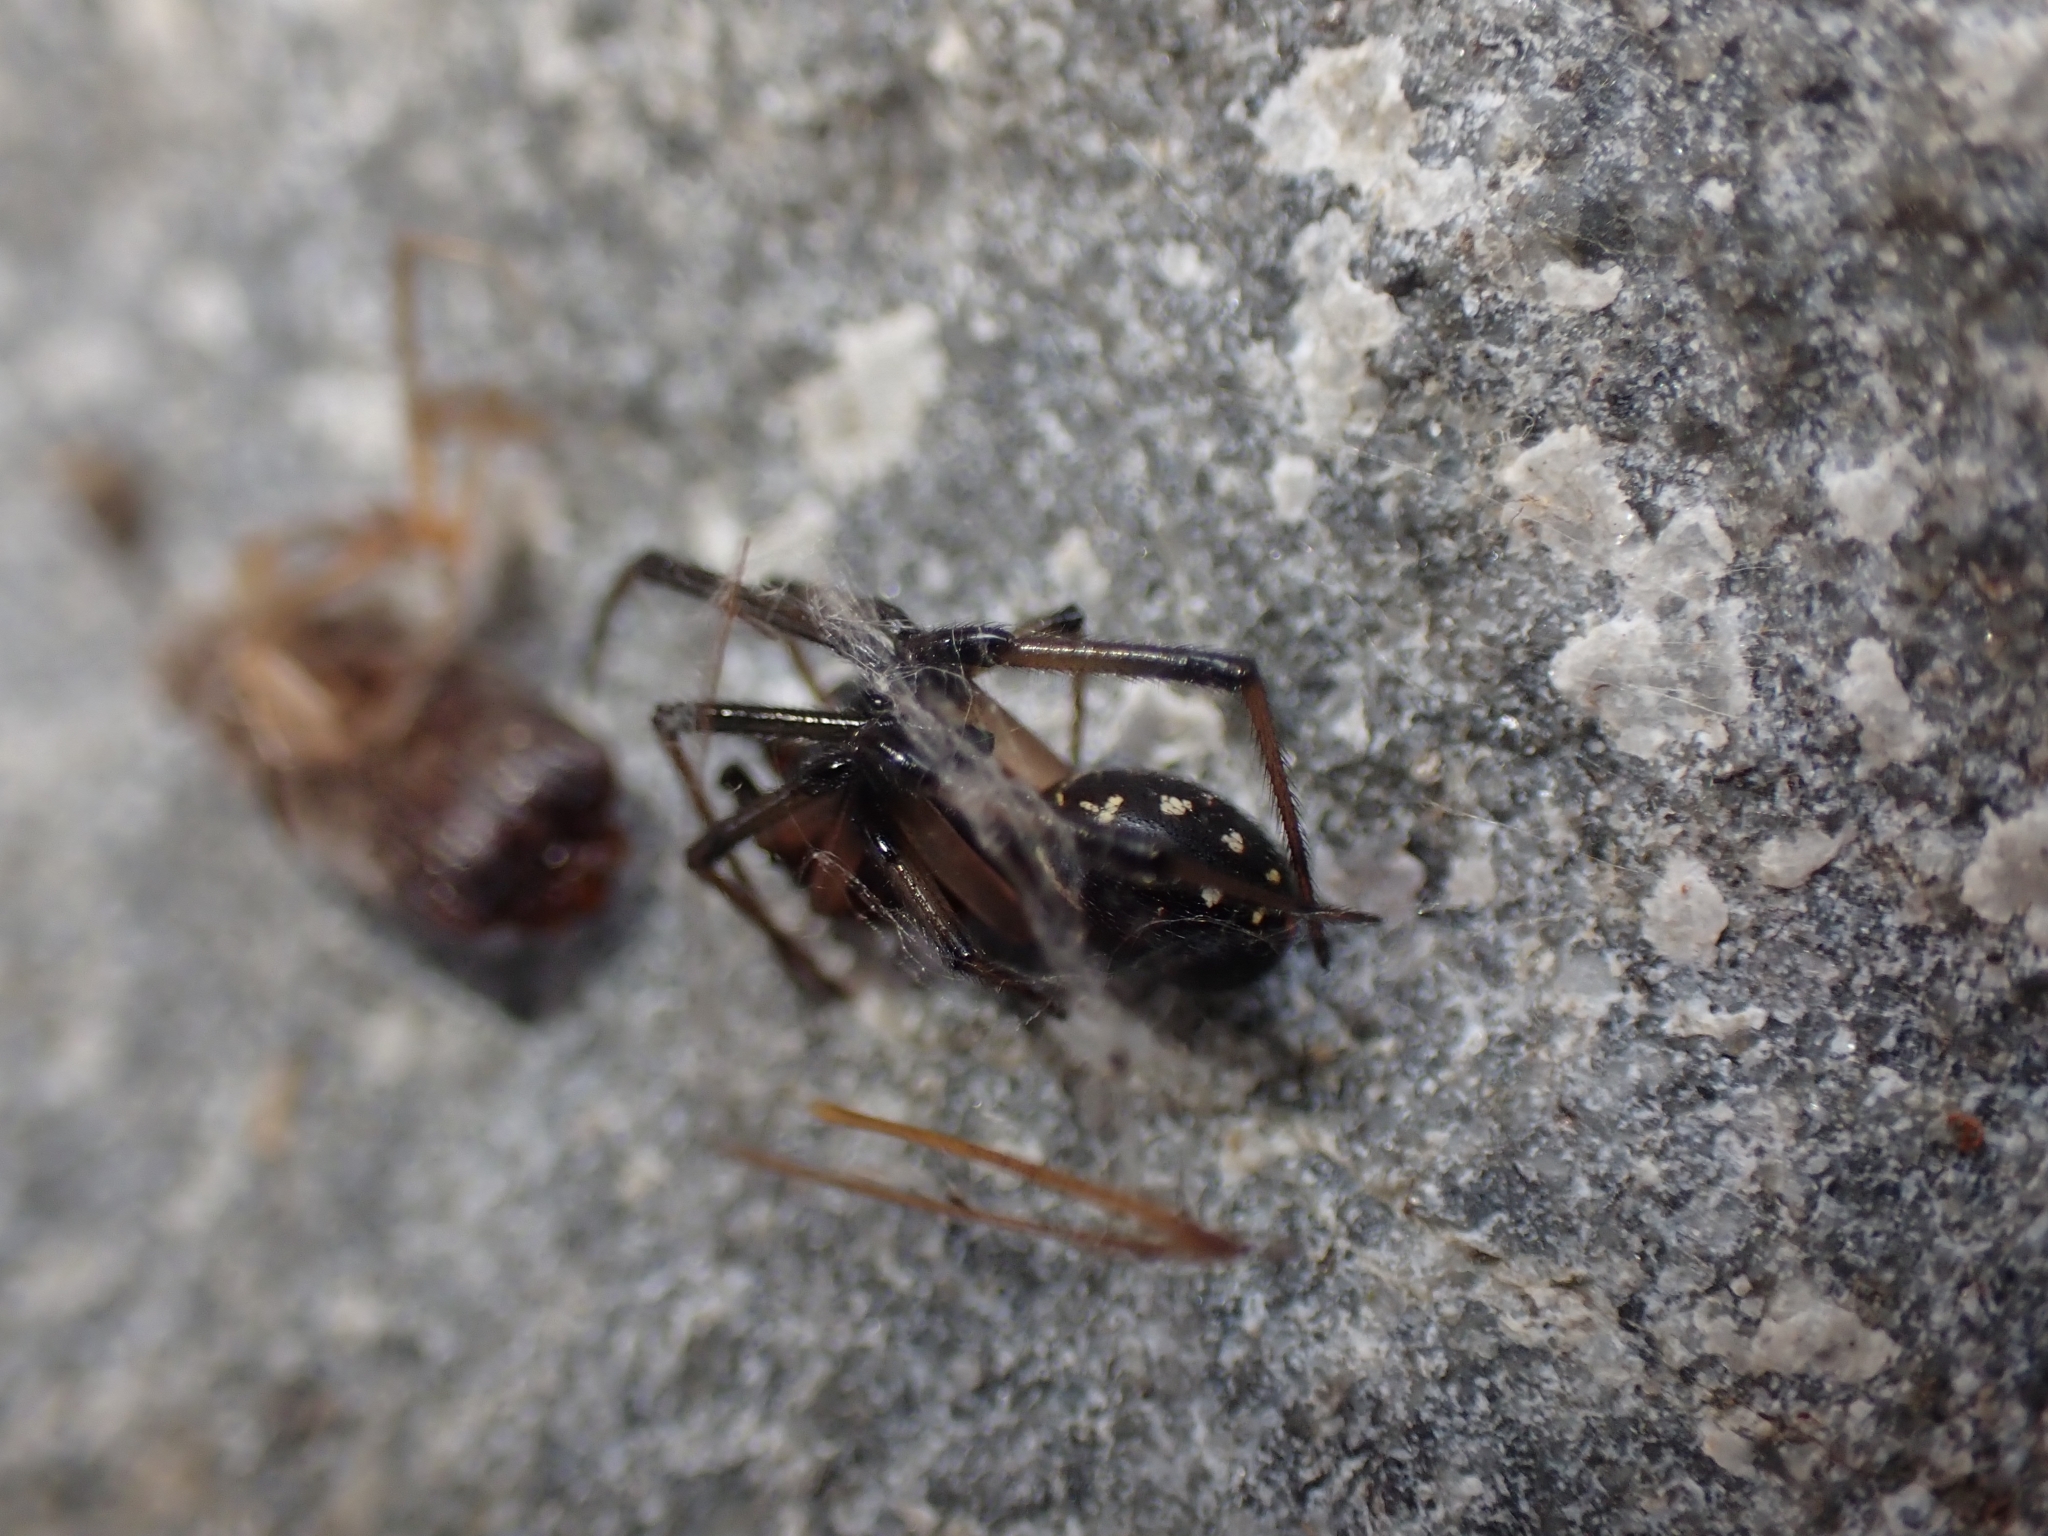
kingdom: Animalia
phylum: Arthropoda
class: Arachnida
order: Araneae
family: Theridiidae
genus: Steatoda
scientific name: Steatoda capensis
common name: Cobweb weaver
